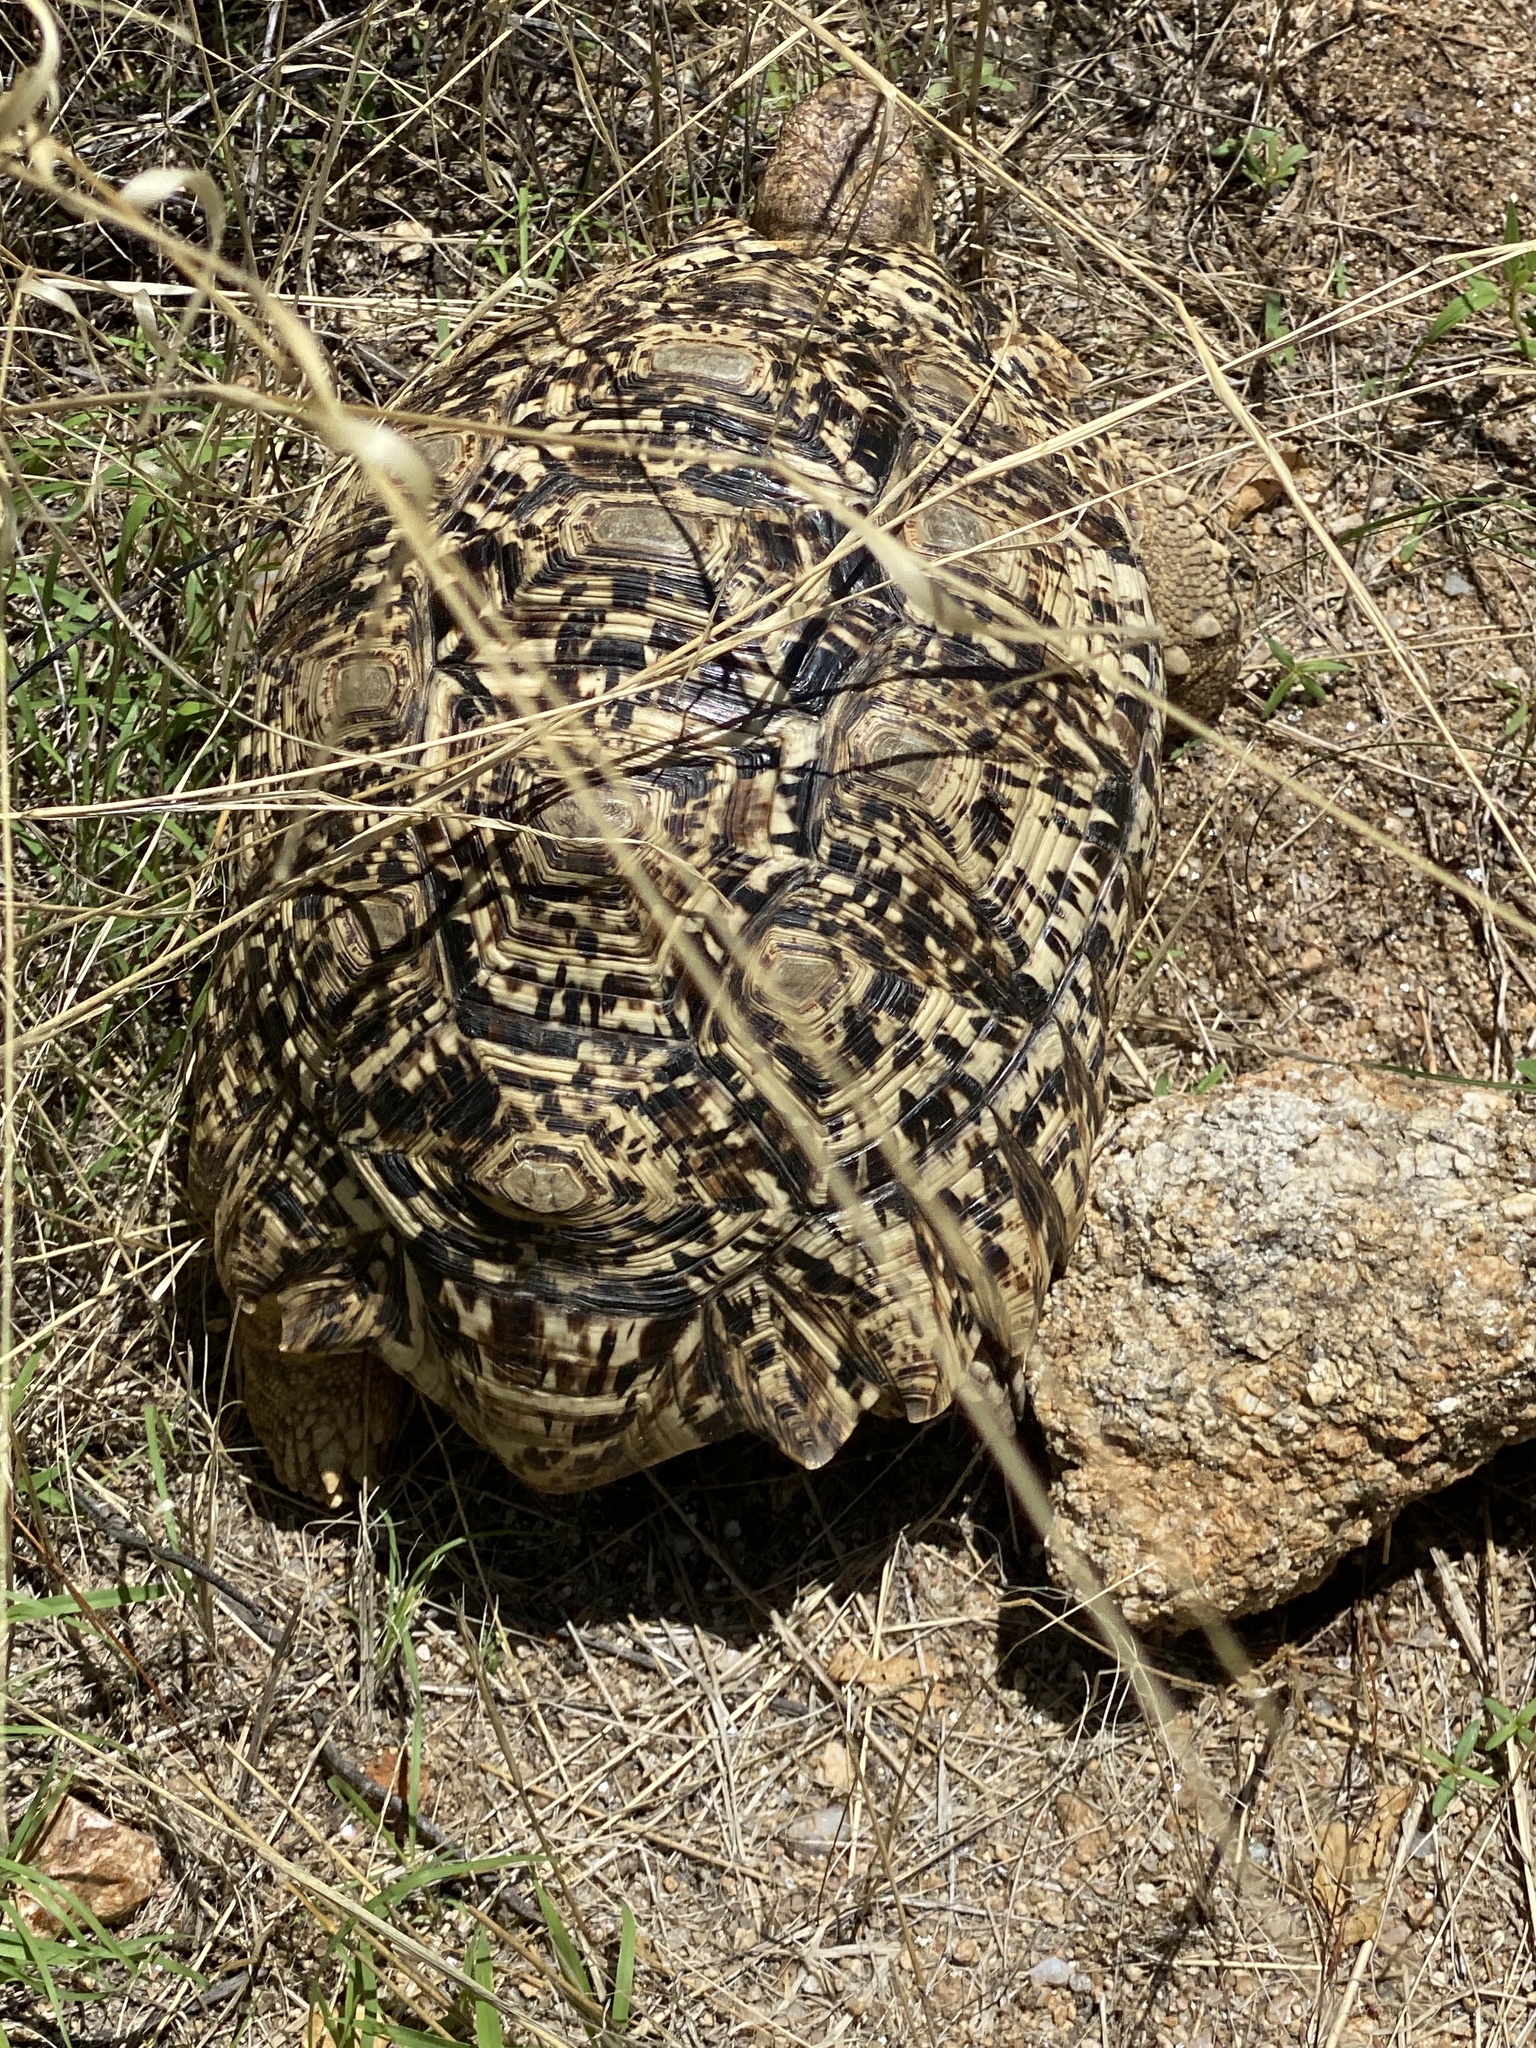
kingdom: Animalia
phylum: Chordata
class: Testudines
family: Testudinidae
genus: Stigmochelys
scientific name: Stigmochelys pardalis
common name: Leopard tortoise
